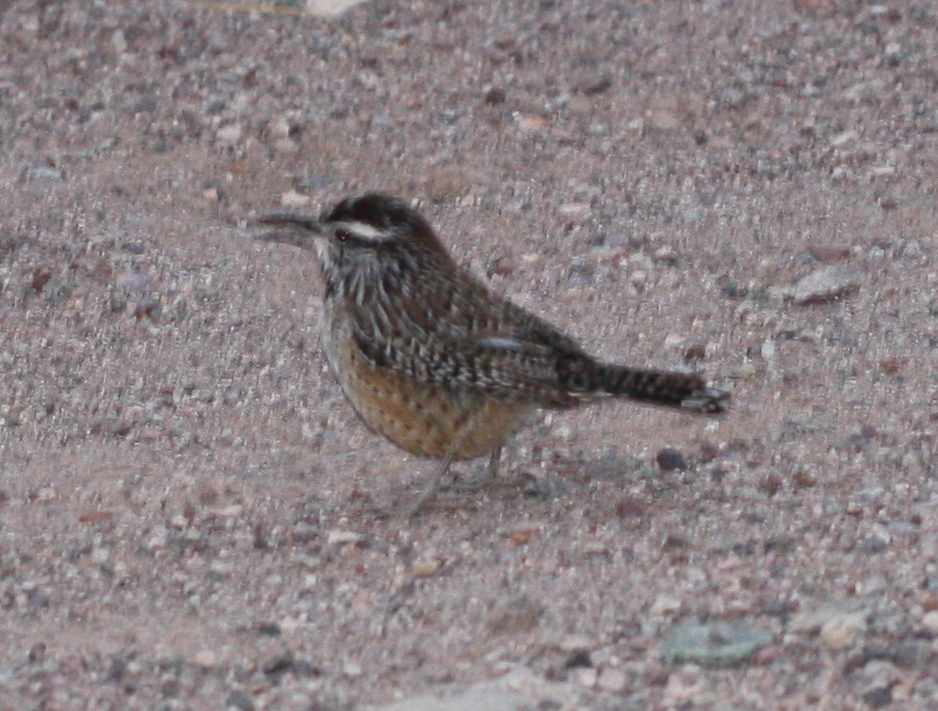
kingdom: Animalia
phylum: Chordata
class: Aves
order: Passeriformes
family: Troglodytidae
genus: Campylorhynchus
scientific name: Campylorhynchus brunneicapillus
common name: Cactus wren
